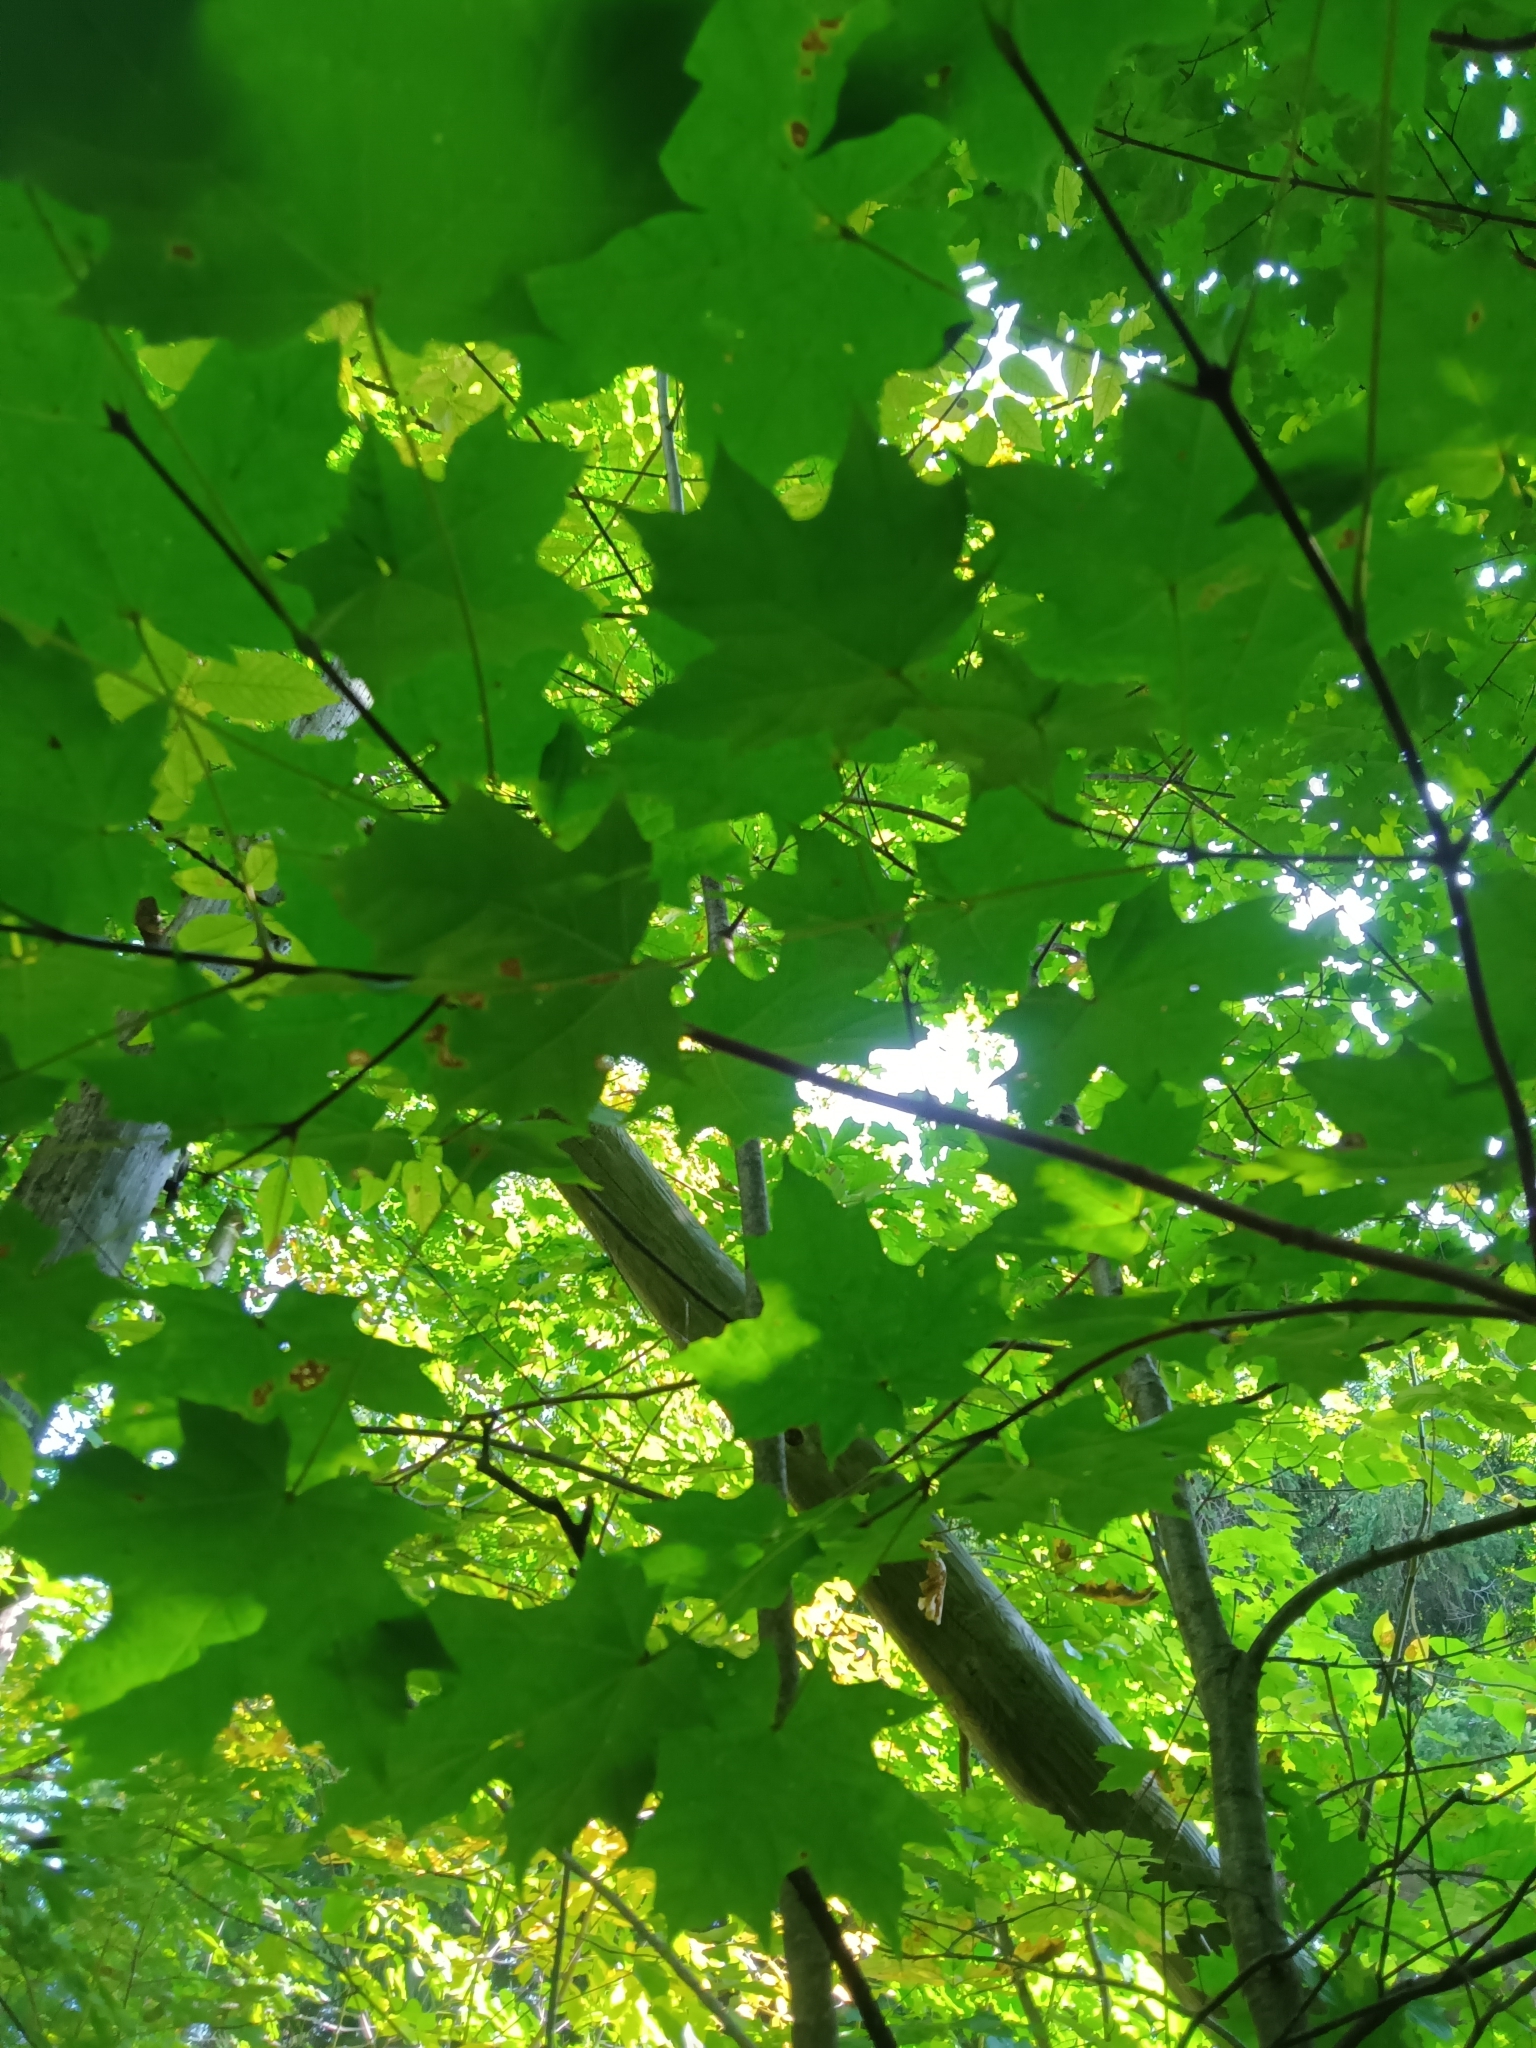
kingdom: Plantae
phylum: Tracheophyta
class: Magnoliopsida
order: Sapindales
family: Sapindaceae
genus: Acer
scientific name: Acer saccharum
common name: Sugar maple
